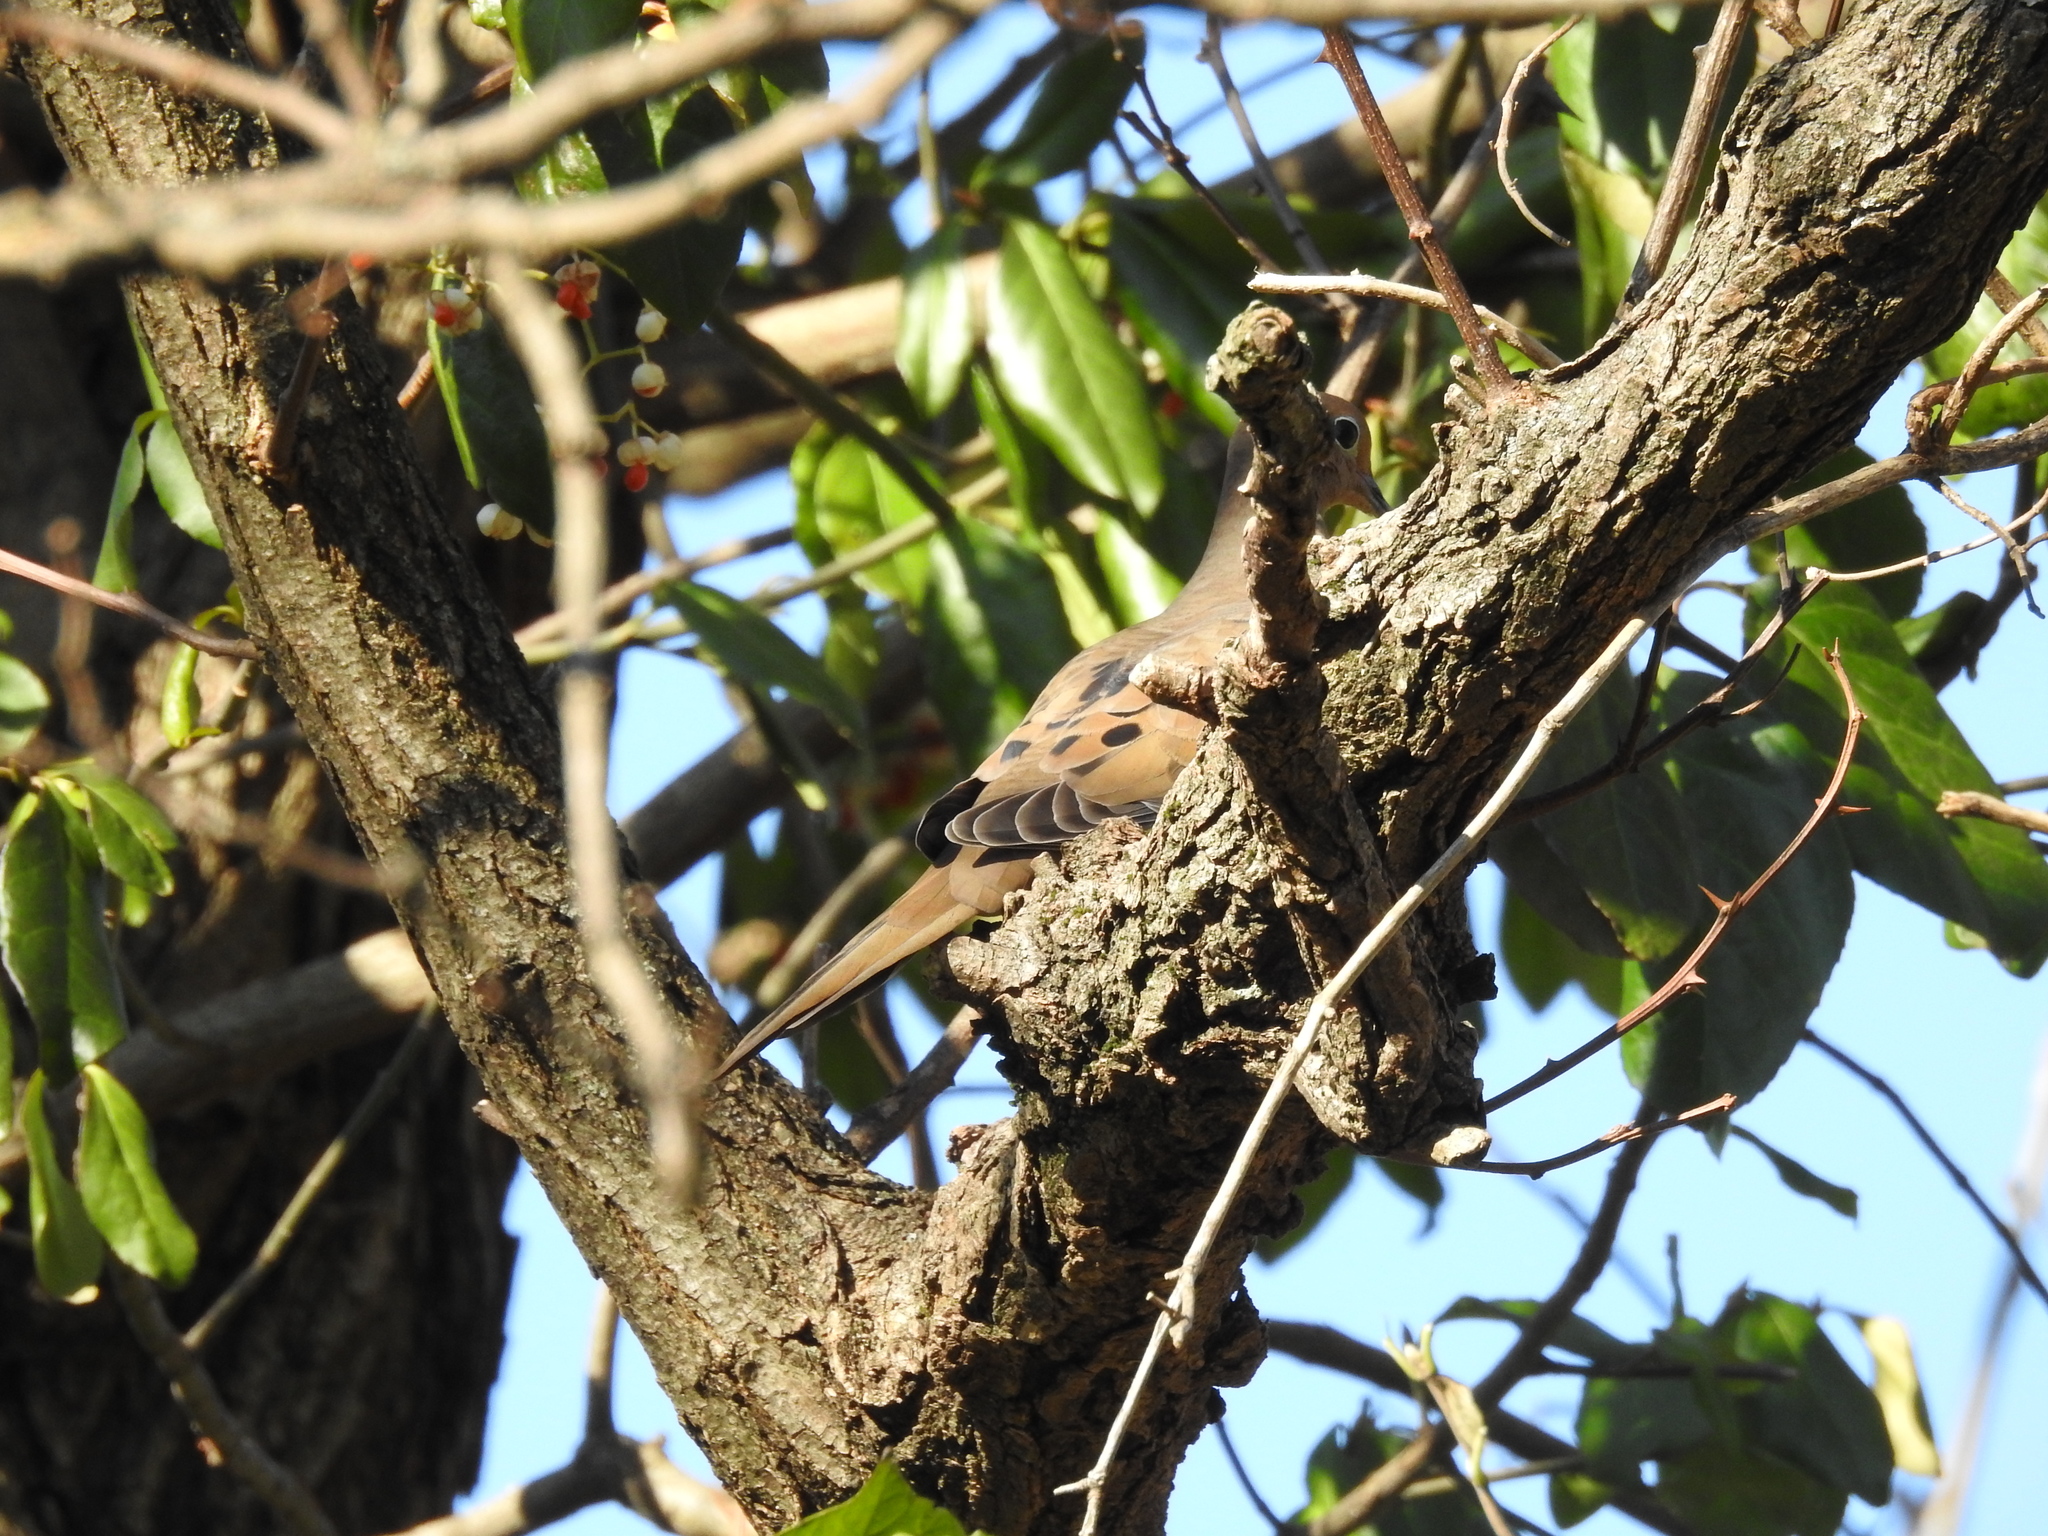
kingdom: Animalia
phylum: Chordata
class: Aves
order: Columbiformes
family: Columbidae
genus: Zenaida
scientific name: Zenaida macroura
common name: Mourning dove
